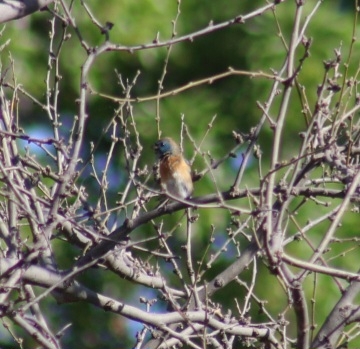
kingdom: Animalia
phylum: Chordata
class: Aves
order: Passeriformes
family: Cardinalidae
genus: Passerina
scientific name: Passerina amoena
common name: Lazuli bunting
